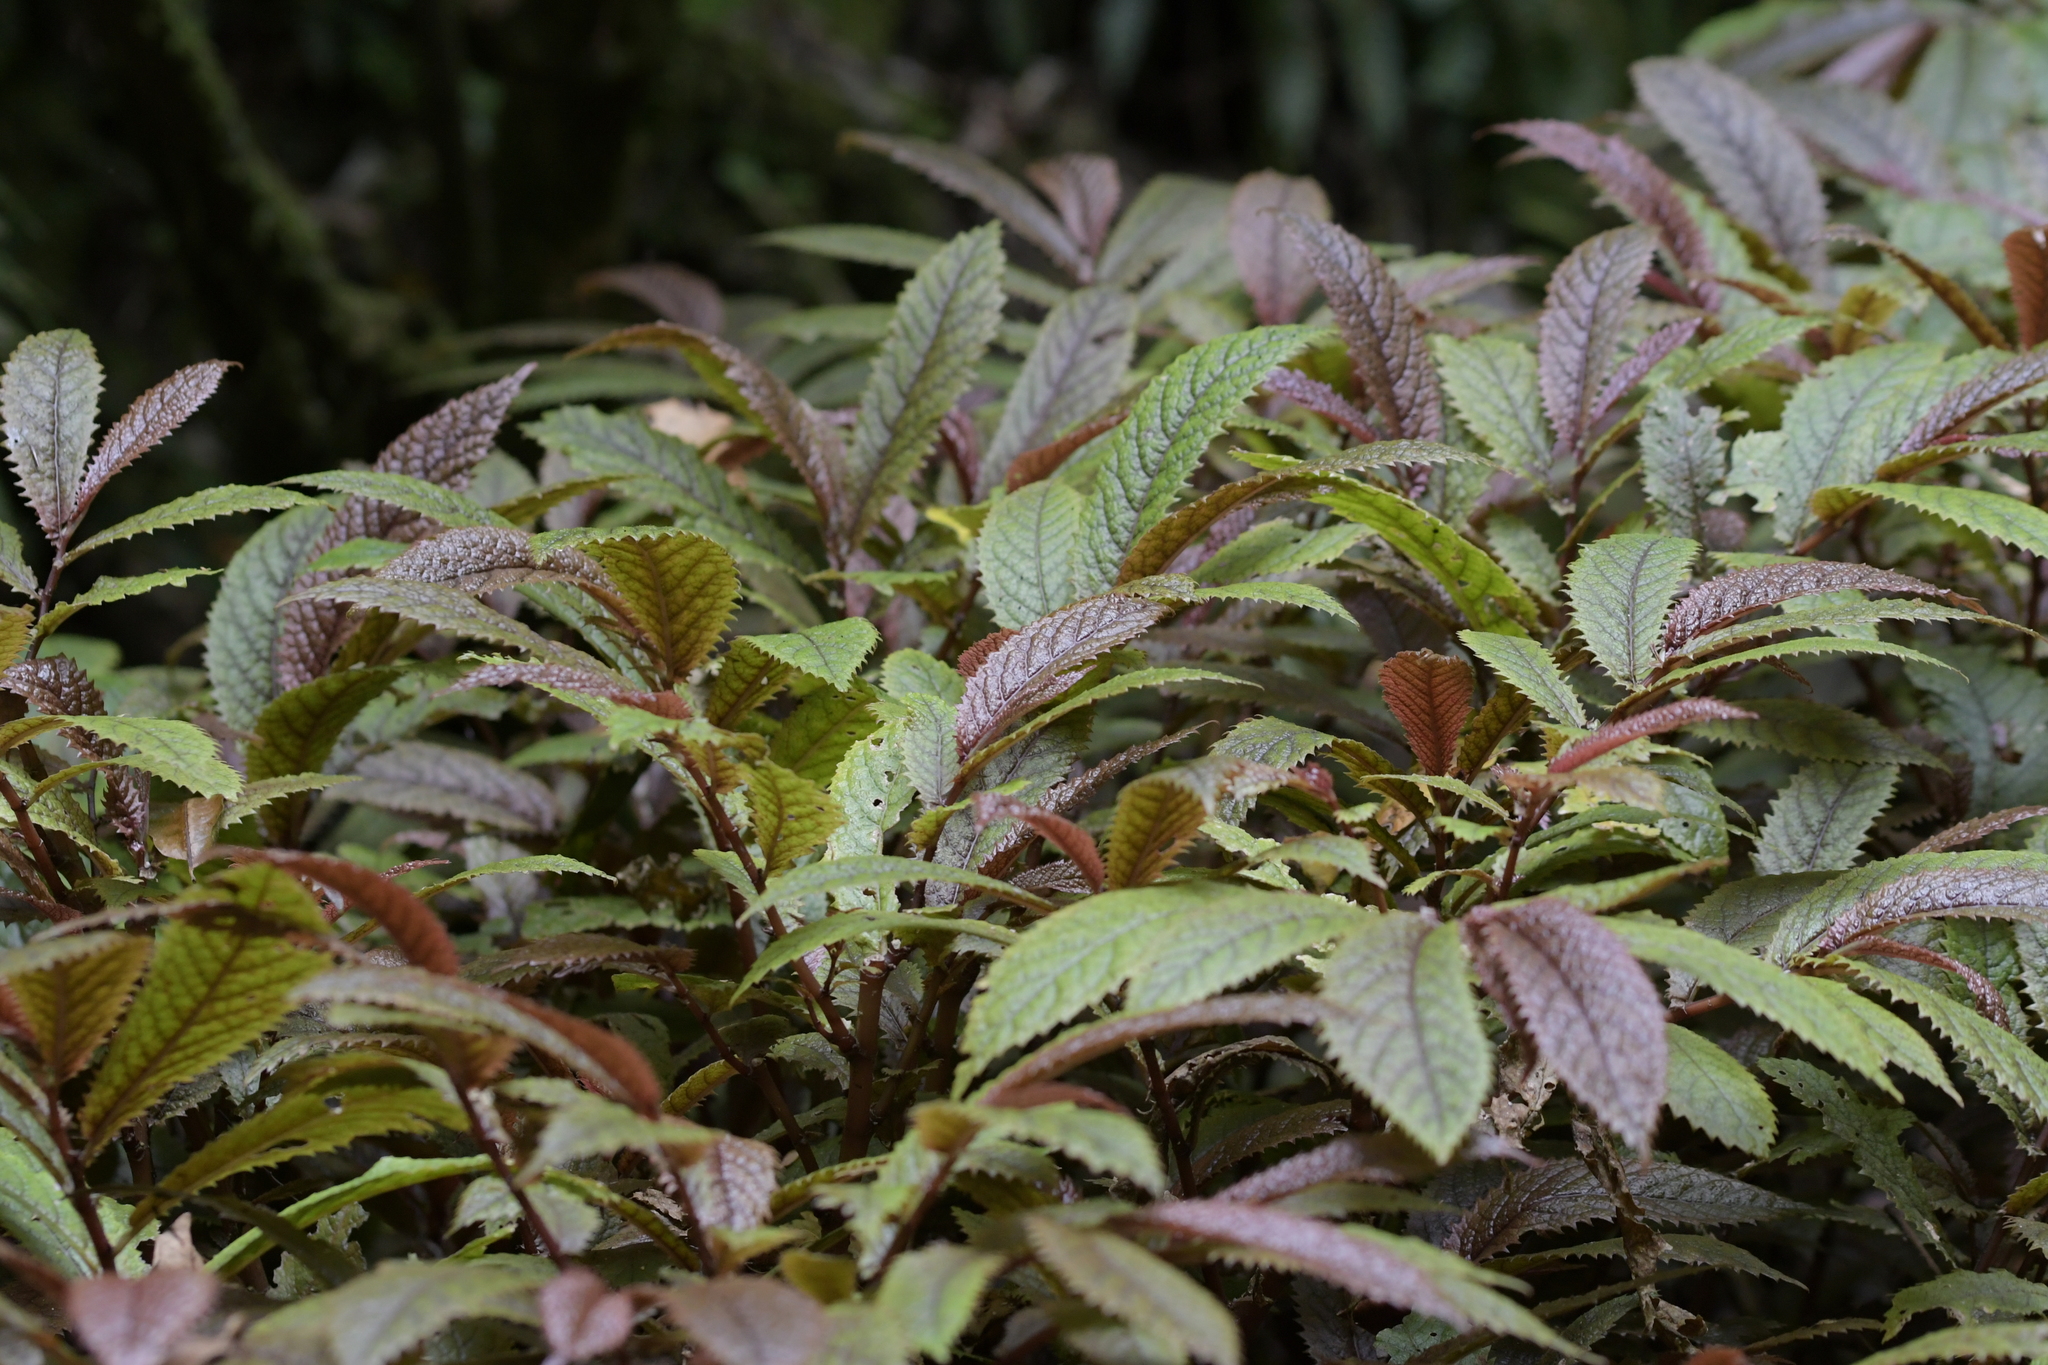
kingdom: Plantae
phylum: Tracheophyta
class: Magnoliopsida
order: Rosales
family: Urticaceae
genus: Elatostema
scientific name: Elatostema rugosum
